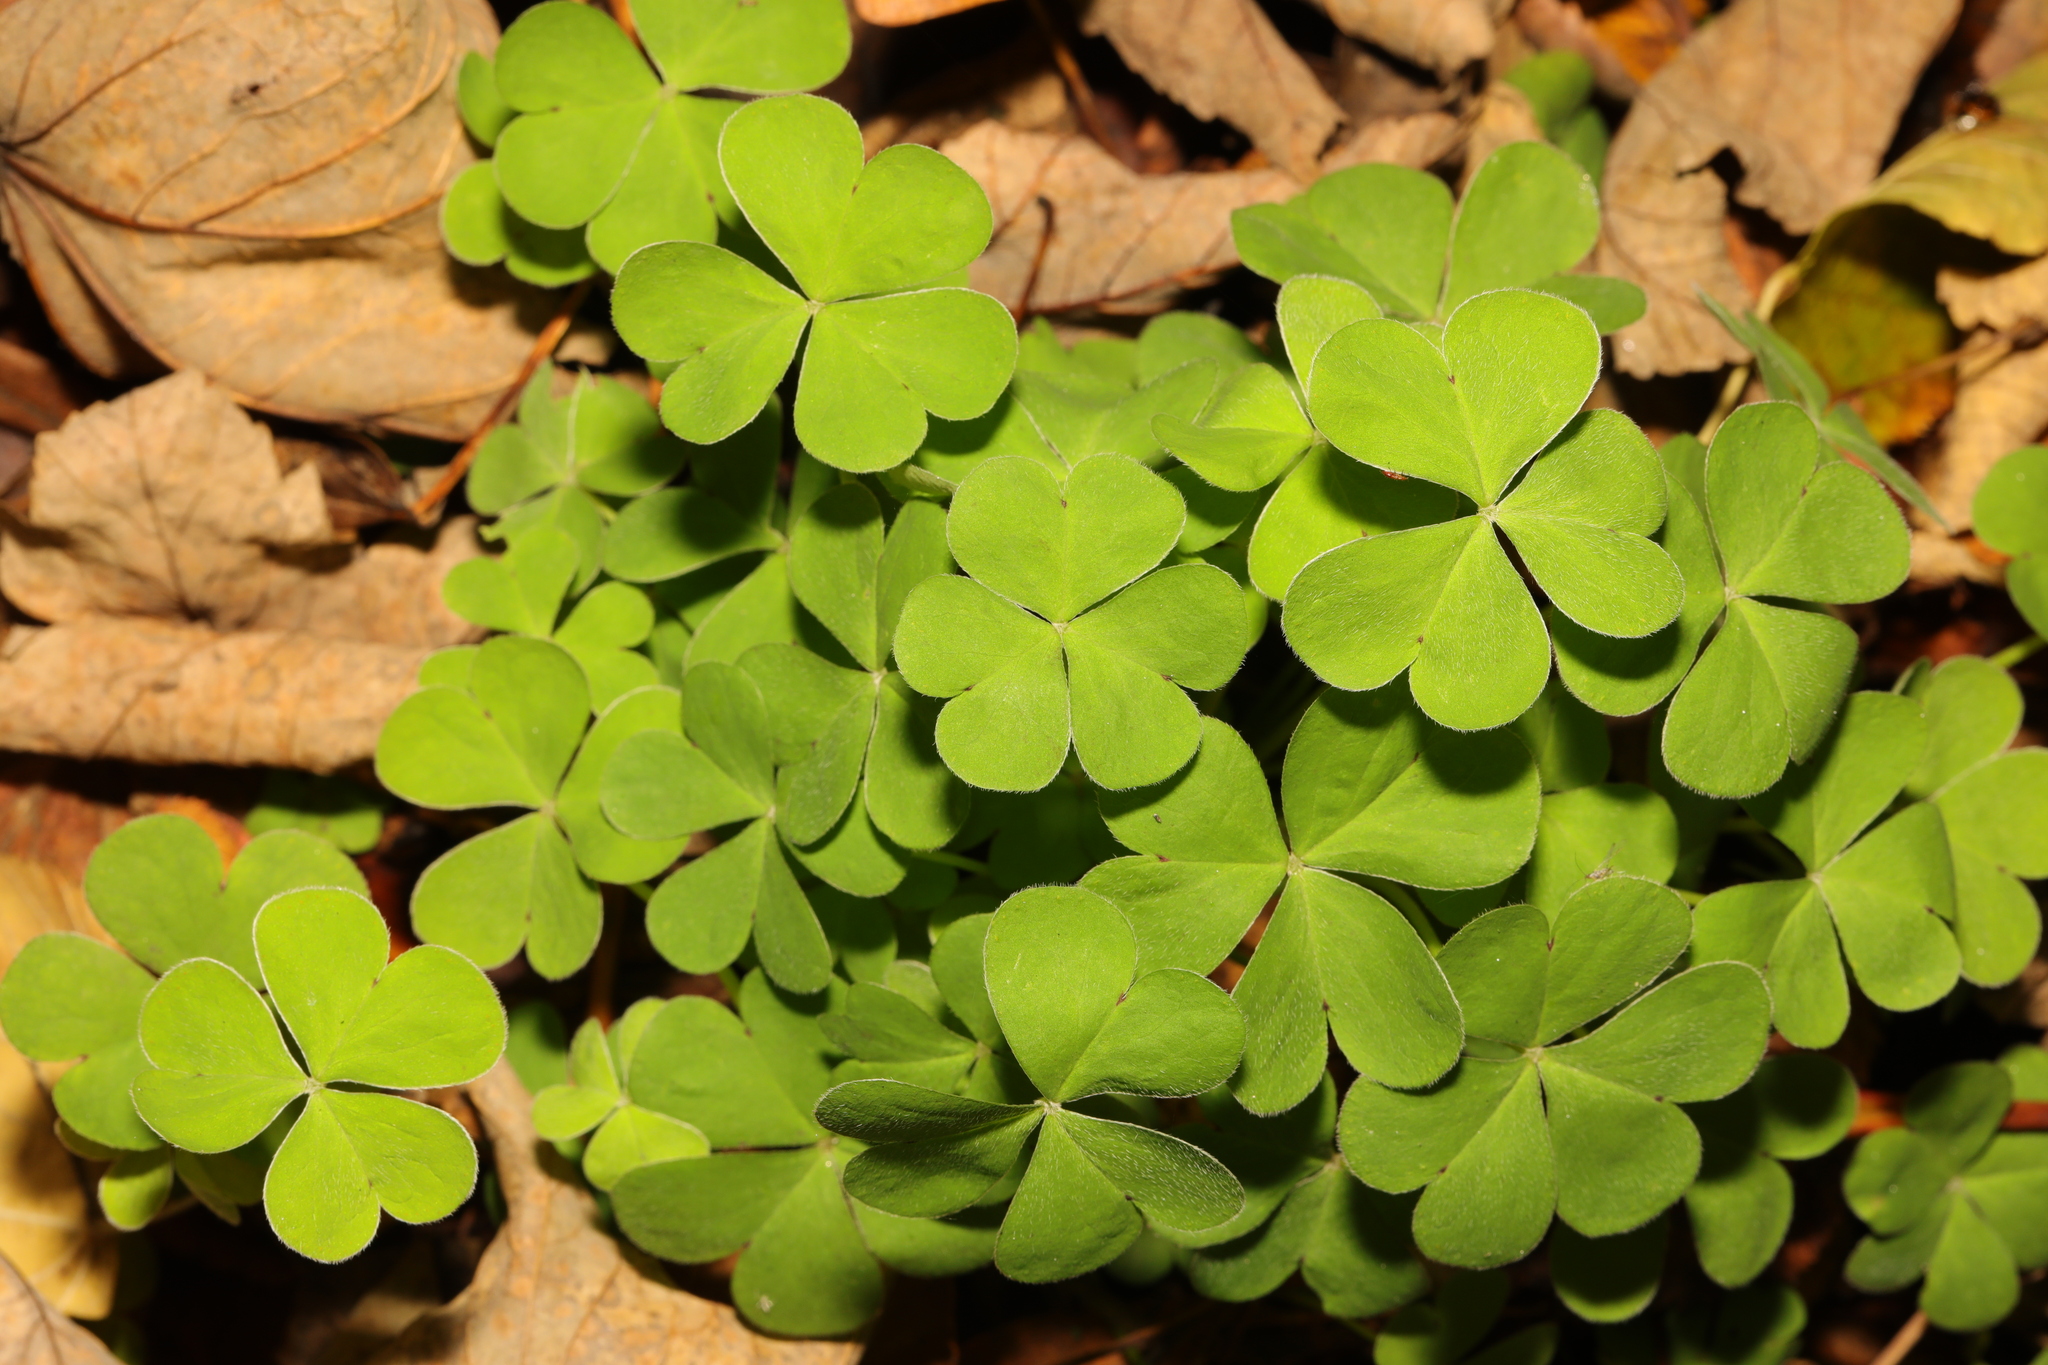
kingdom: Plantae
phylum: Tracheophyta
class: Magnoliopsida
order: Oxalidales
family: Oxalidaceae
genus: Oxalis
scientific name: Oxalis acetosella
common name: Wood-sorrel
